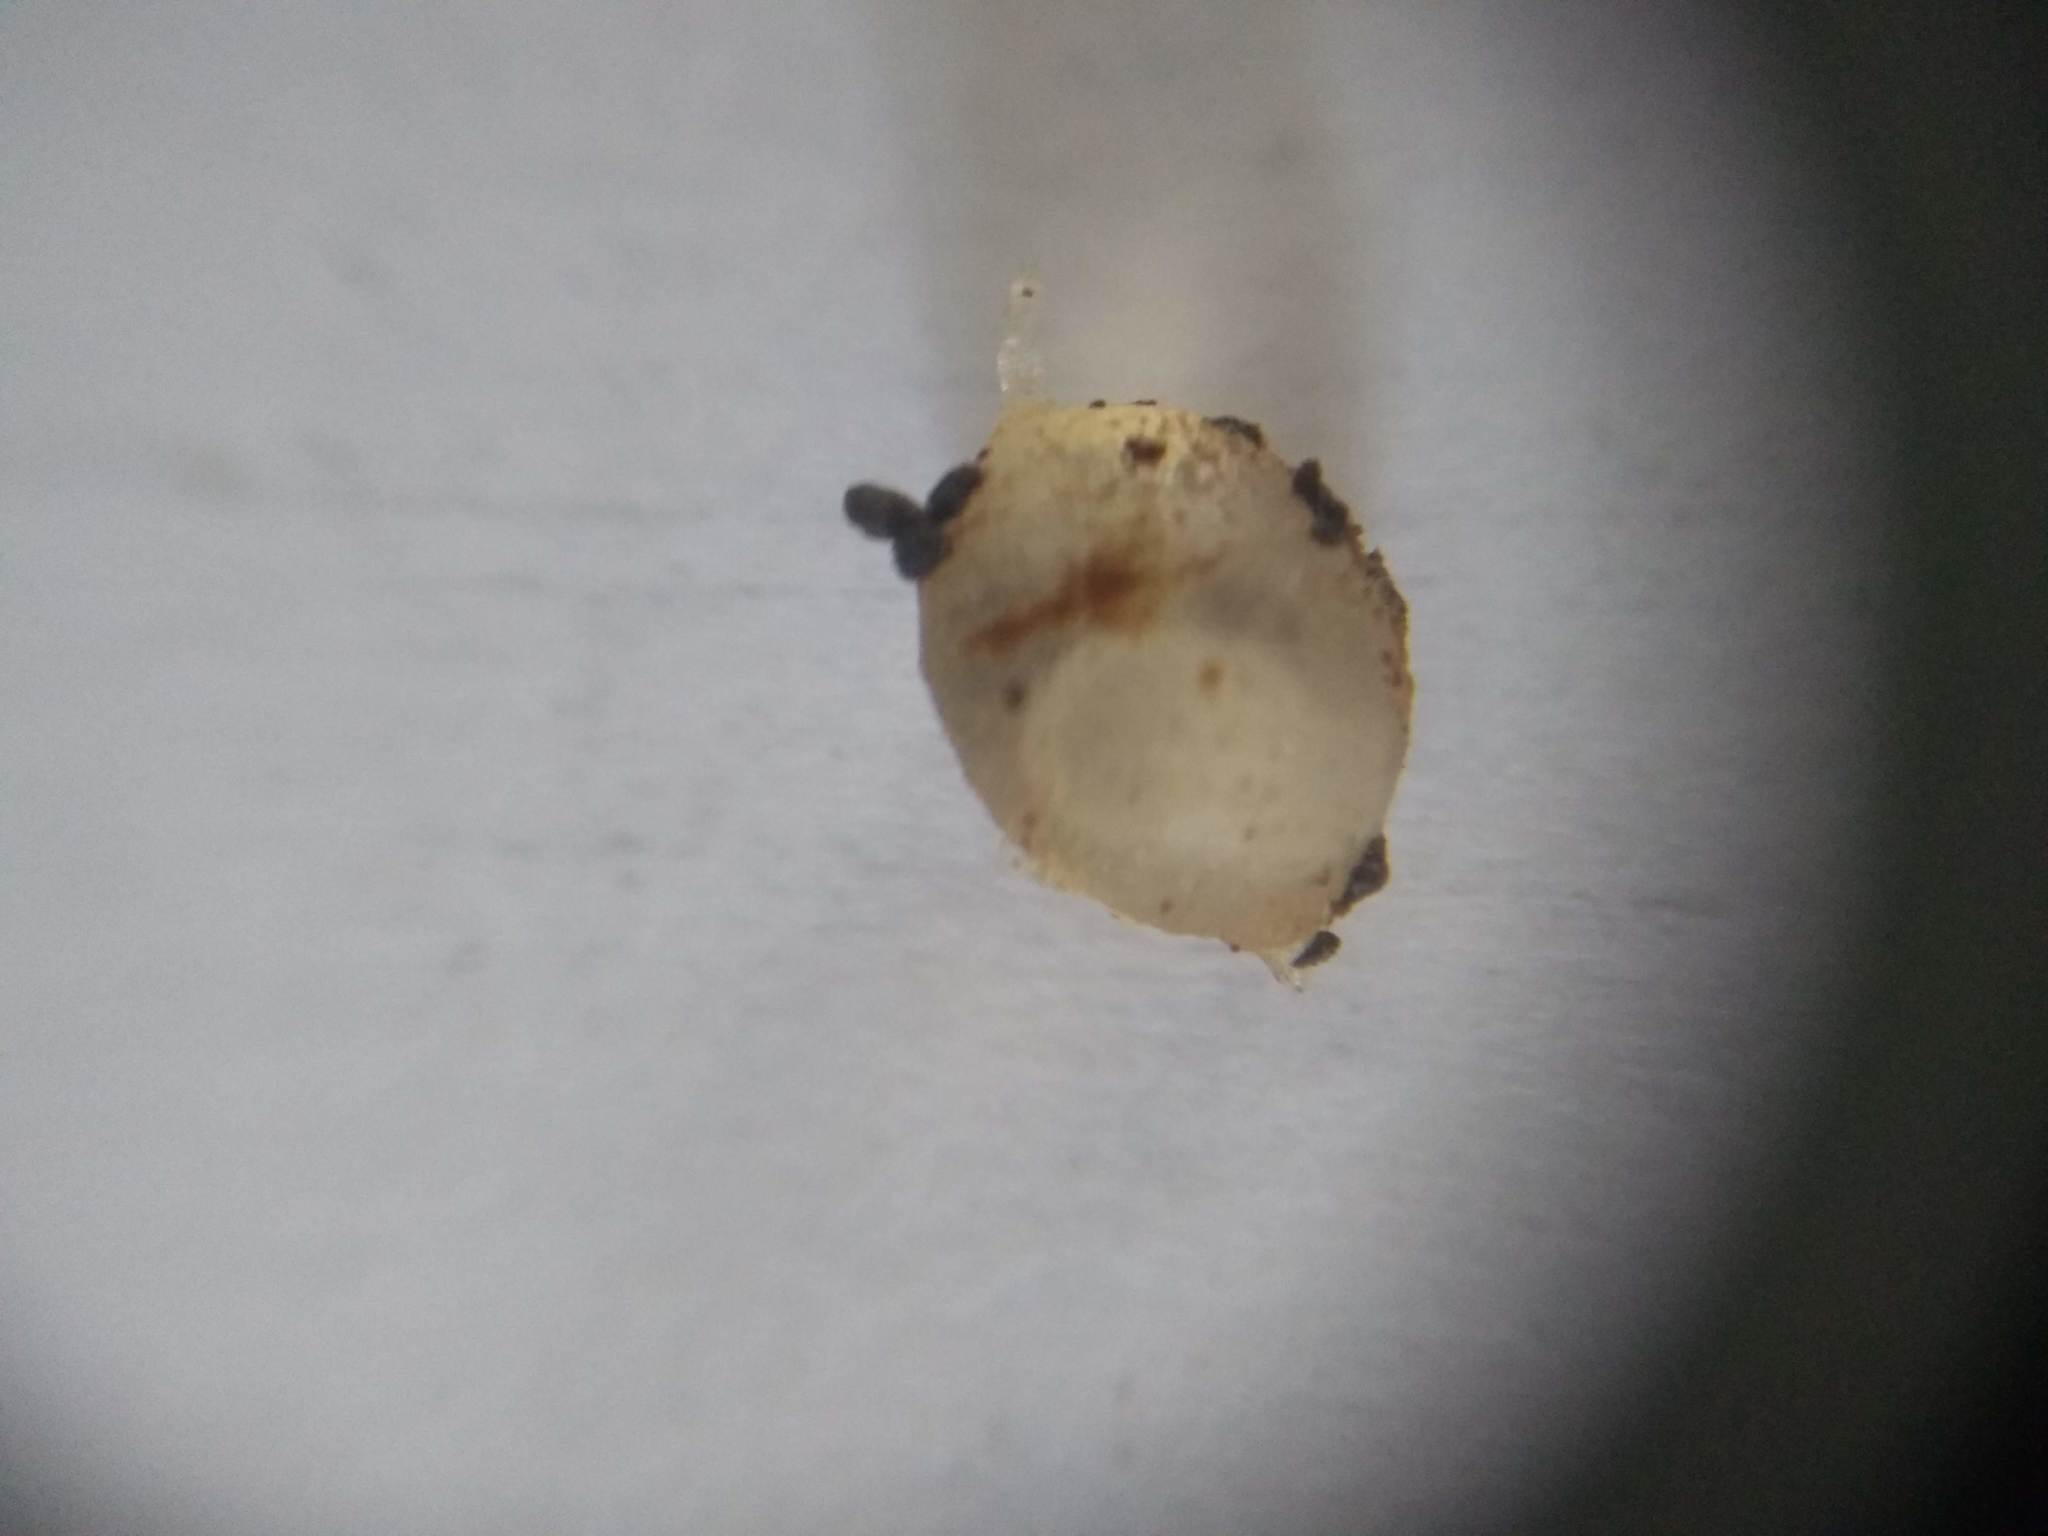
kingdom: Animalia
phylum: Mollusca
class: Gastropoda
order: Stylommatophora
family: Limacidae
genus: Limacus
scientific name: Limacus flavus
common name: Yellow gardenslug
